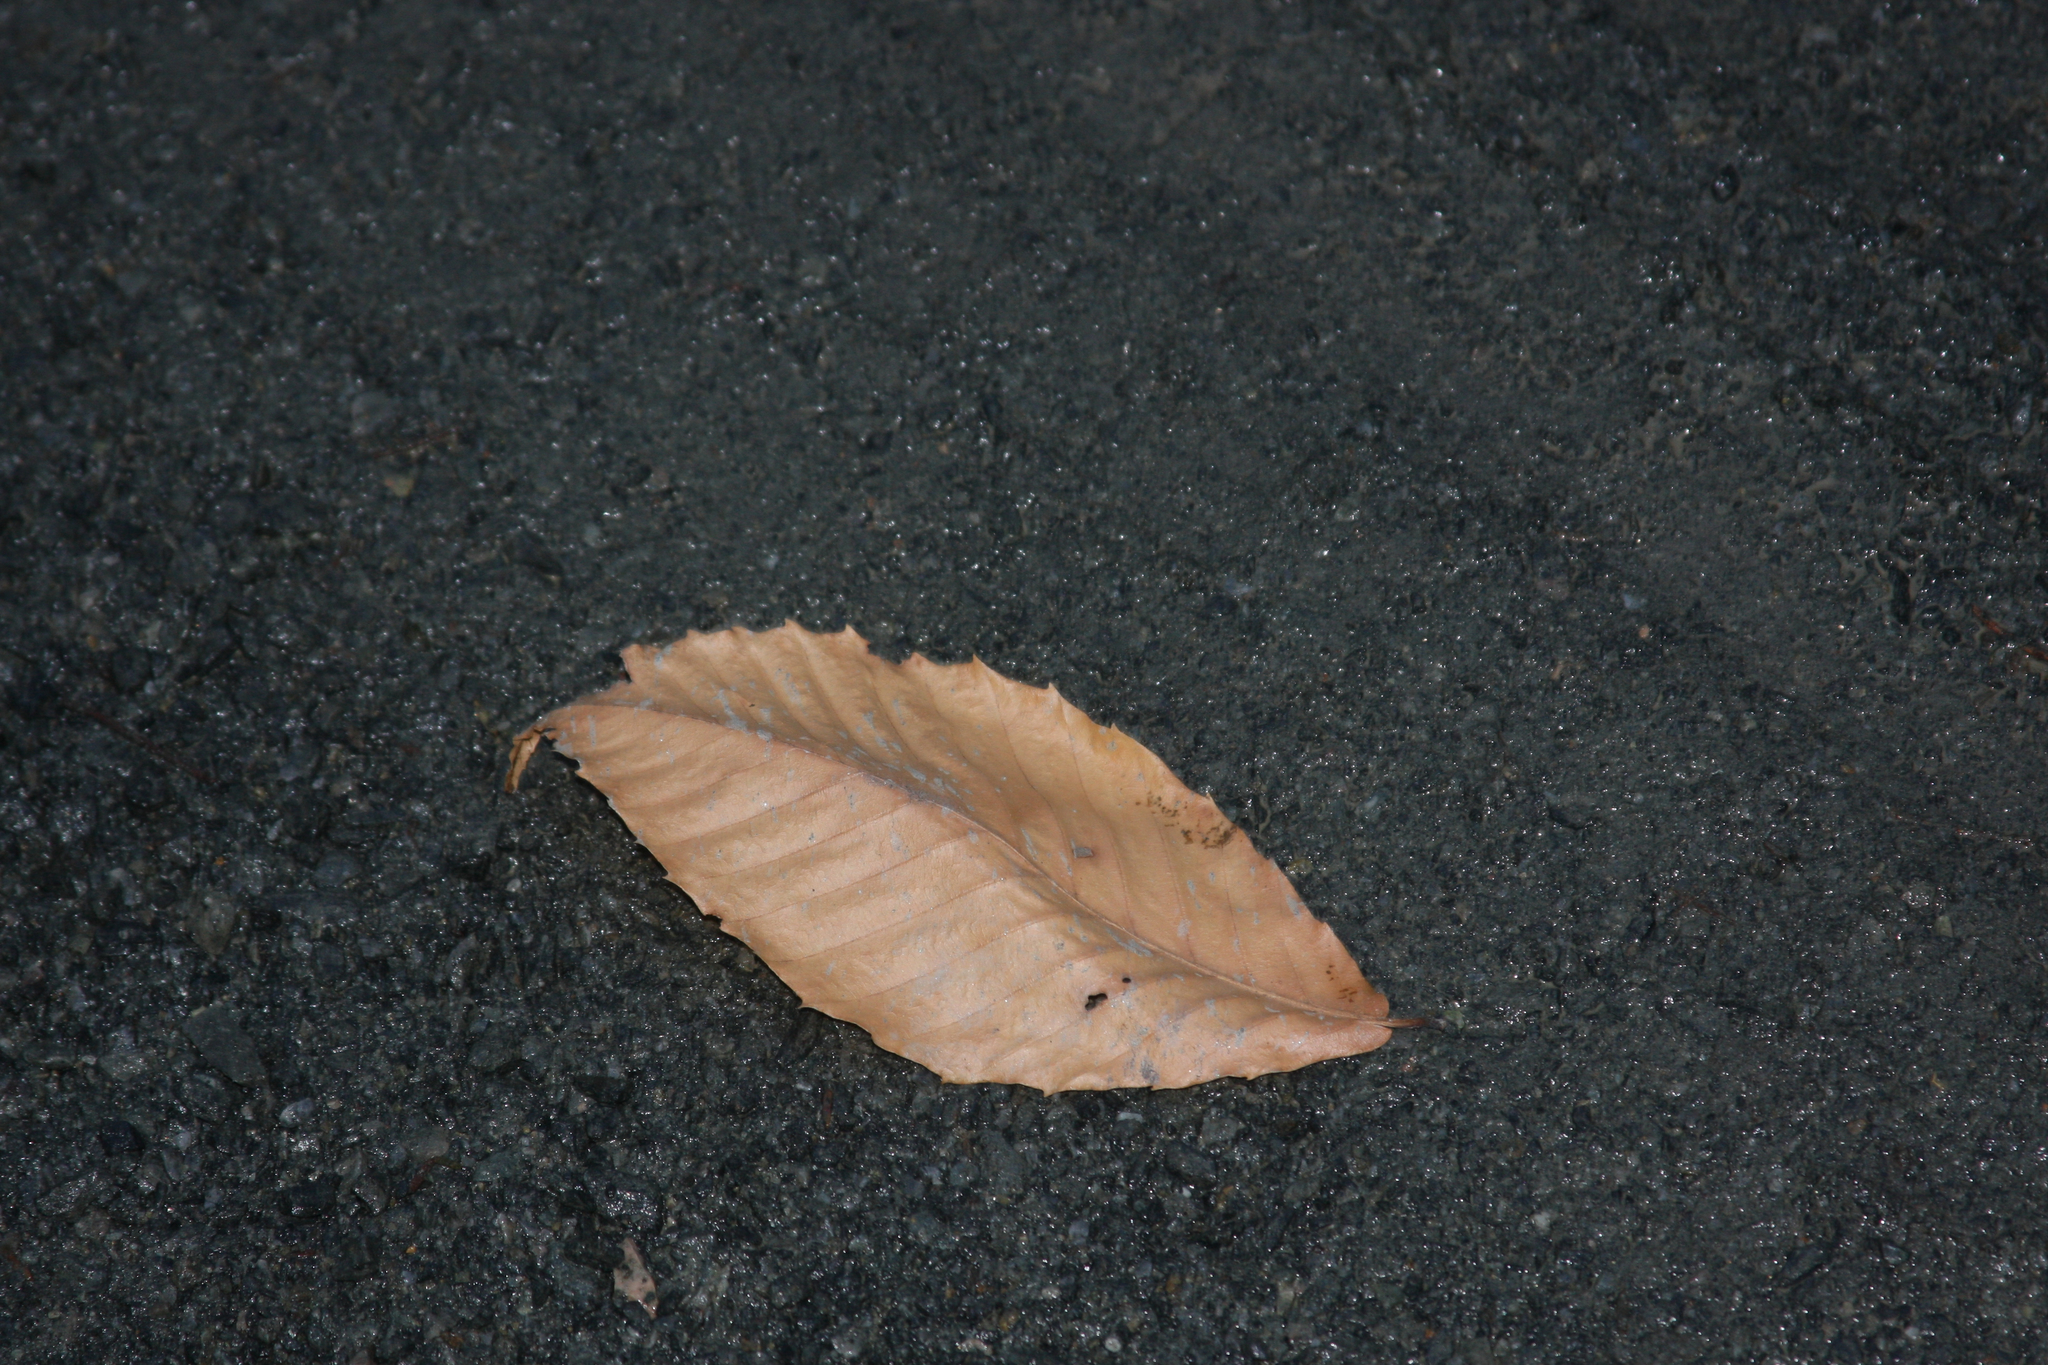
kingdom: Plantae
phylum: Tracheophyta
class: Magnoliopsida
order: Fagales
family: Fagaceae
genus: Fagus
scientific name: Fagus grandifolia
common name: American beech
